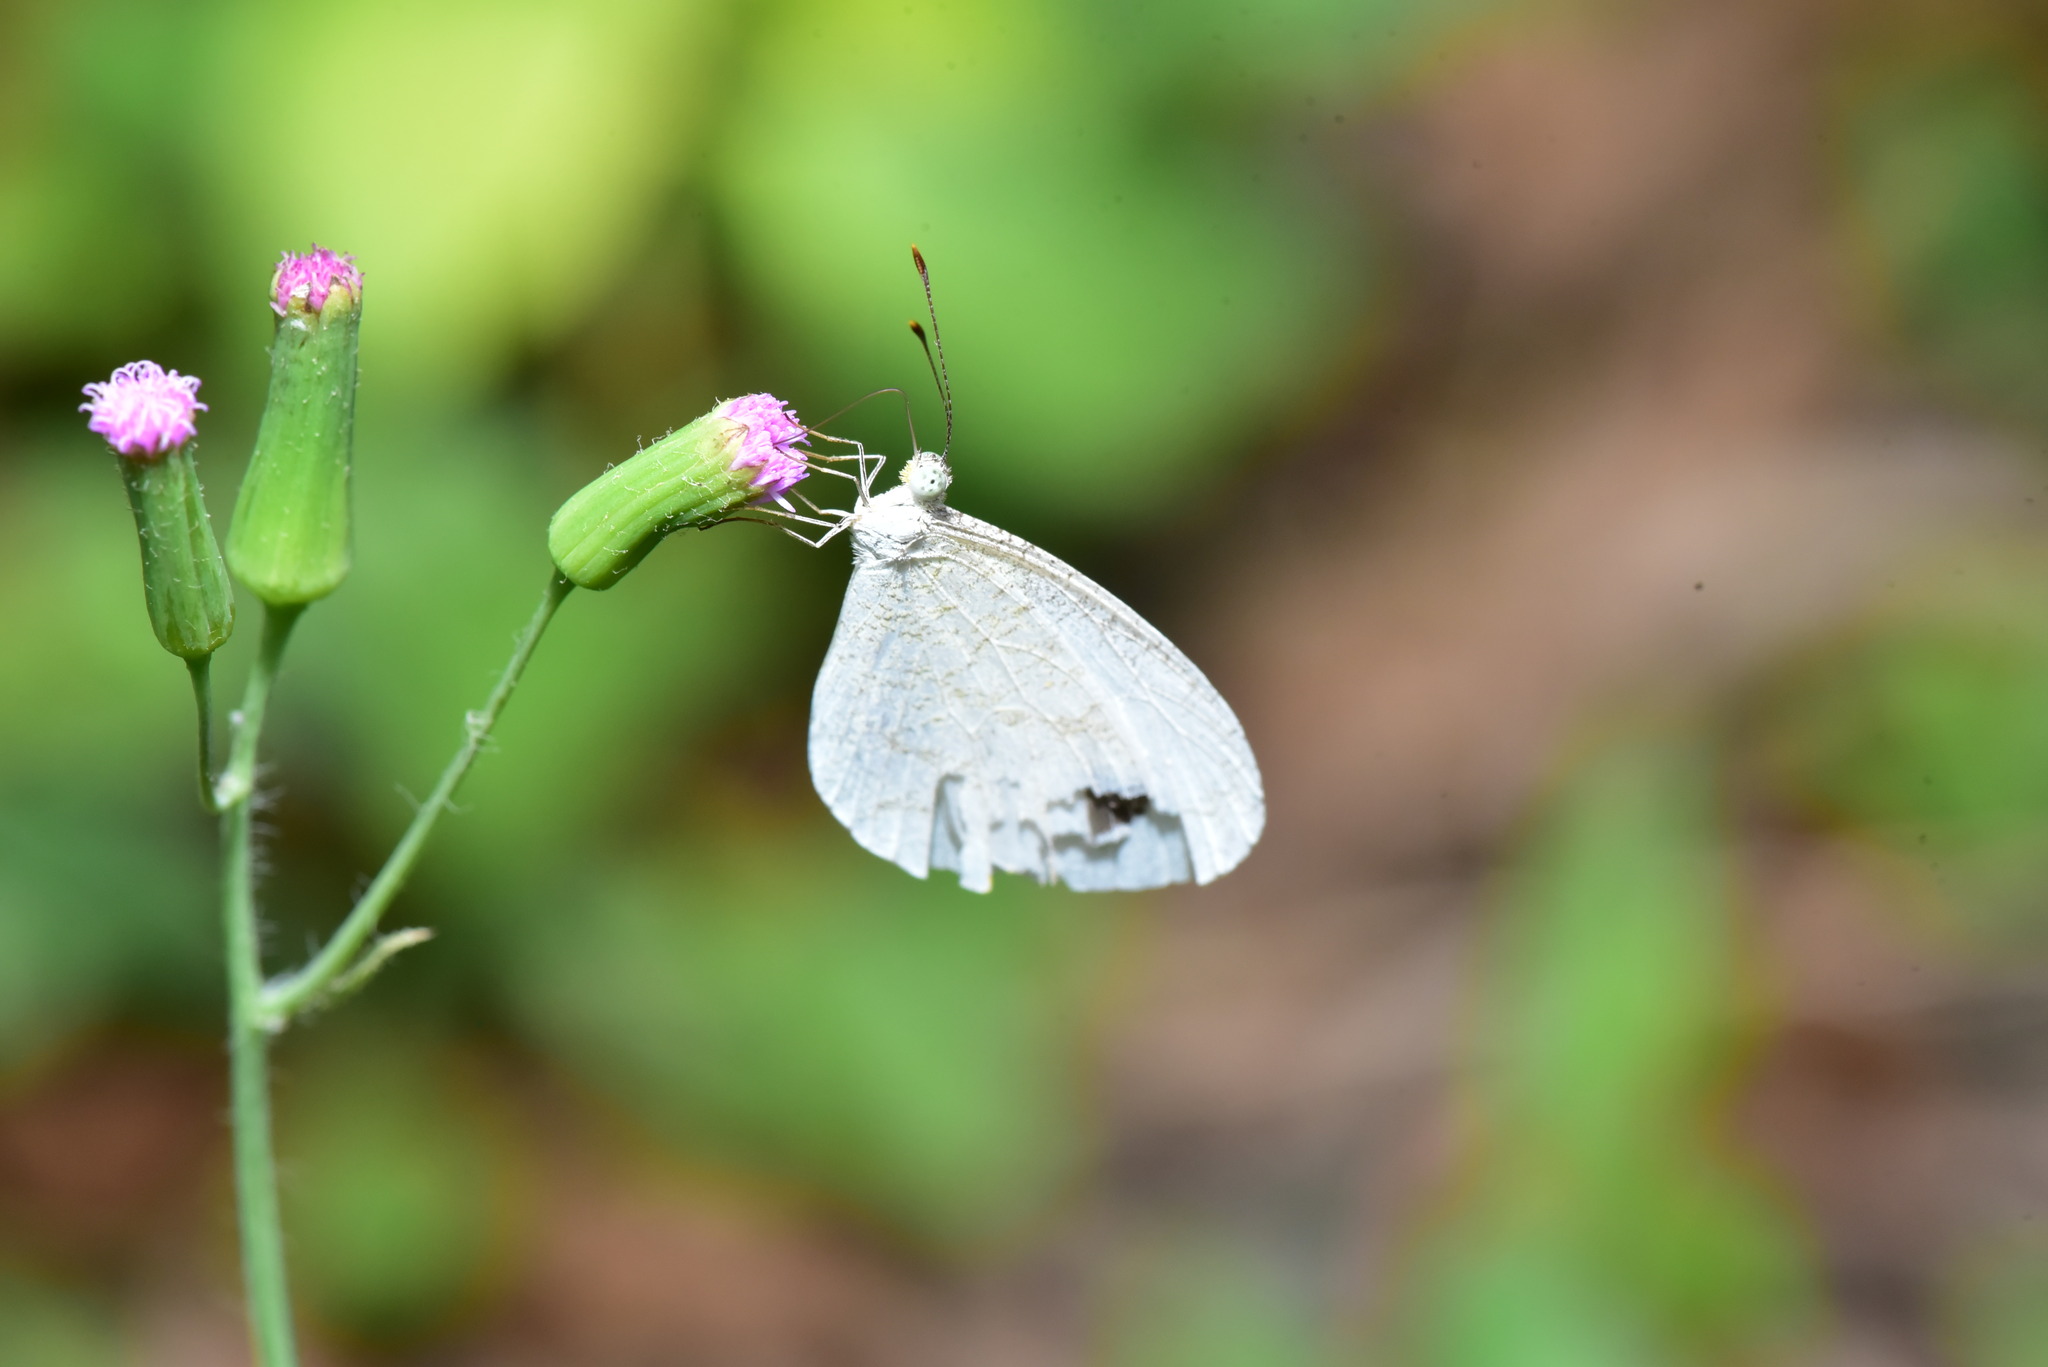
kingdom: Animalia
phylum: Arthropoda
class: Insecta
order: Lepidoptera
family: Pieridae
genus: Leptosia
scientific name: Leptosia nina
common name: Psyche
